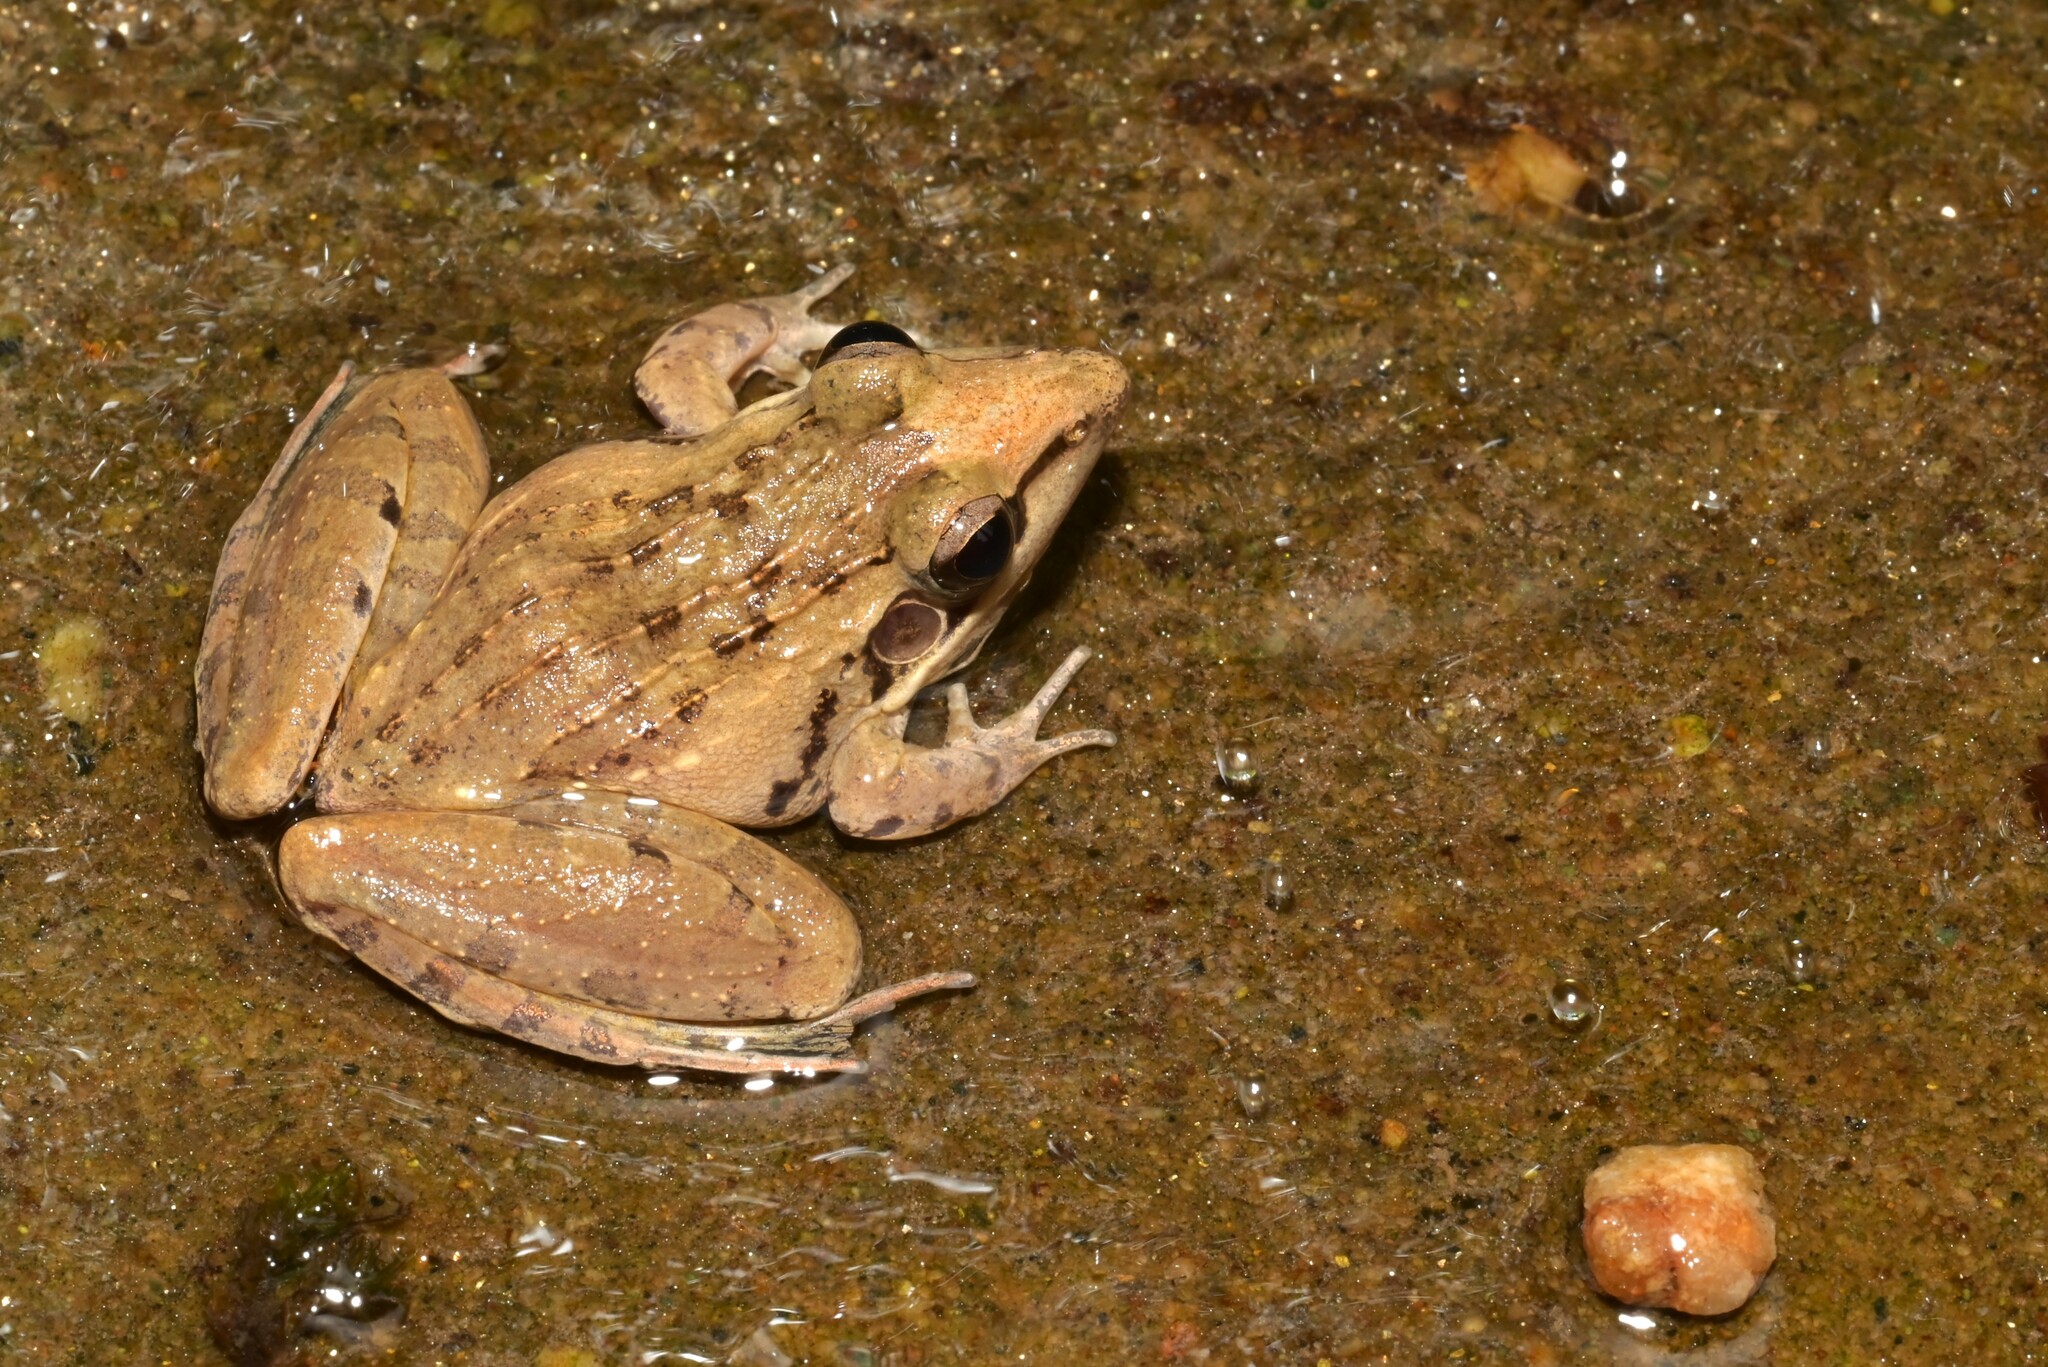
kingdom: Animalia
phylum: Chordata
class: Amphibia
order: Anura
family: Ptychadenidae
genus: Ptychadena
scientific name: Ptychadena anchietae
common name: Anchieta's ridged frog
